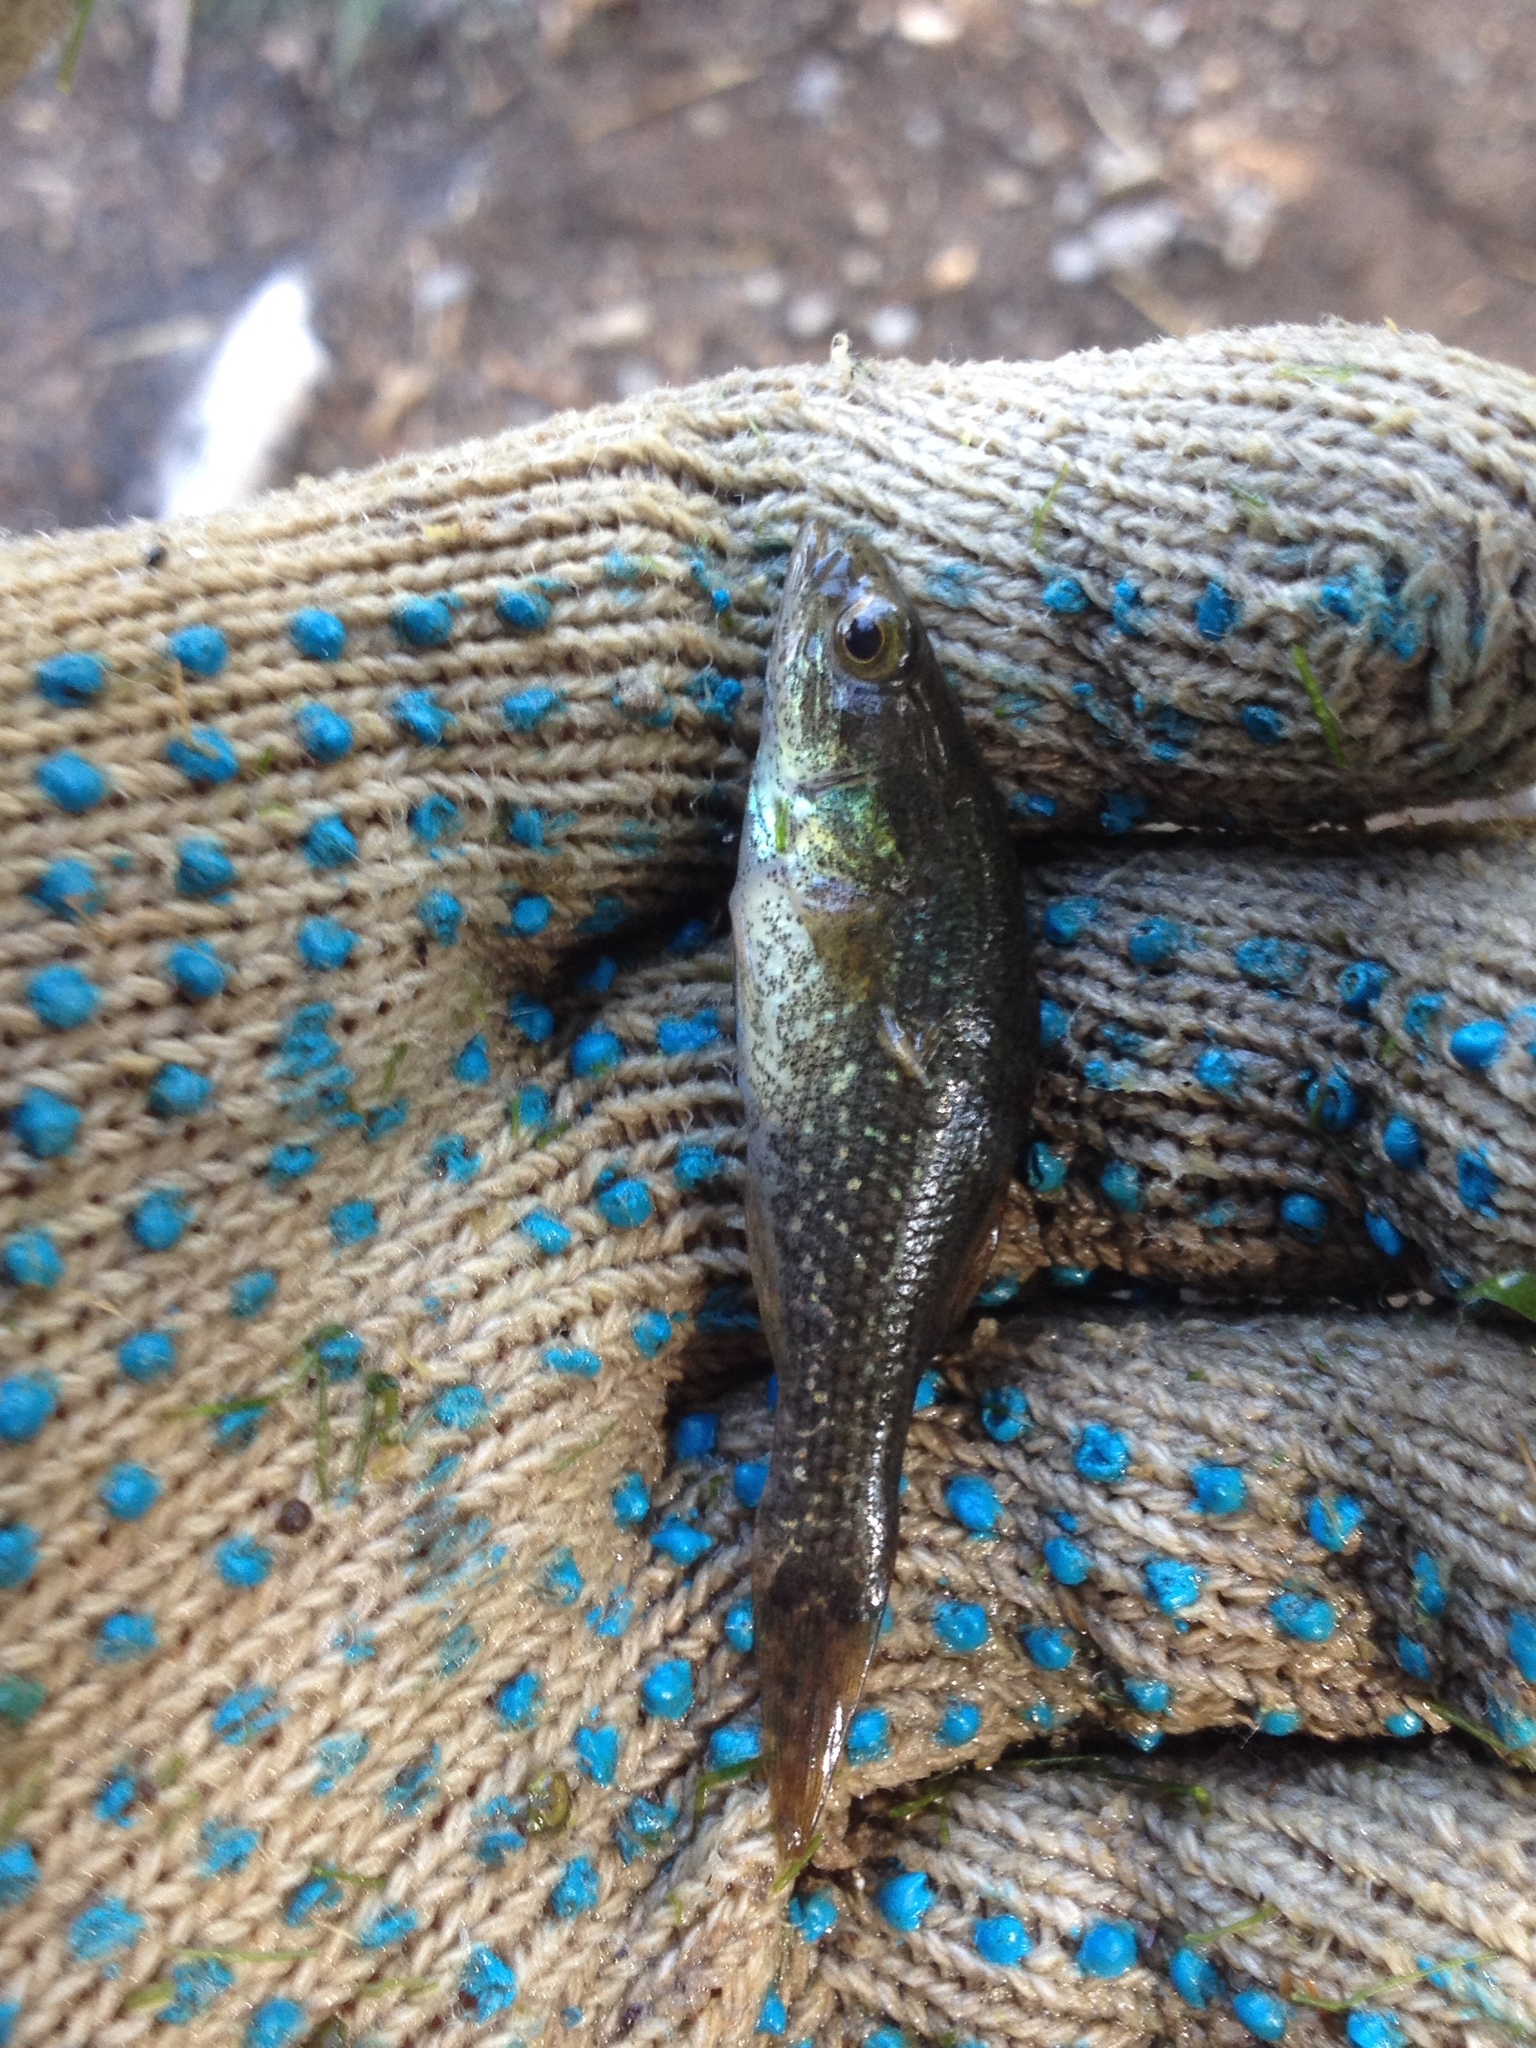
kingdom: Animalia
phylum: Chordata
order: Perciformes
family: Odontobutidae
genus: Perccottus
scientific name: Perccottus glenii
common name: Amur sleeper
